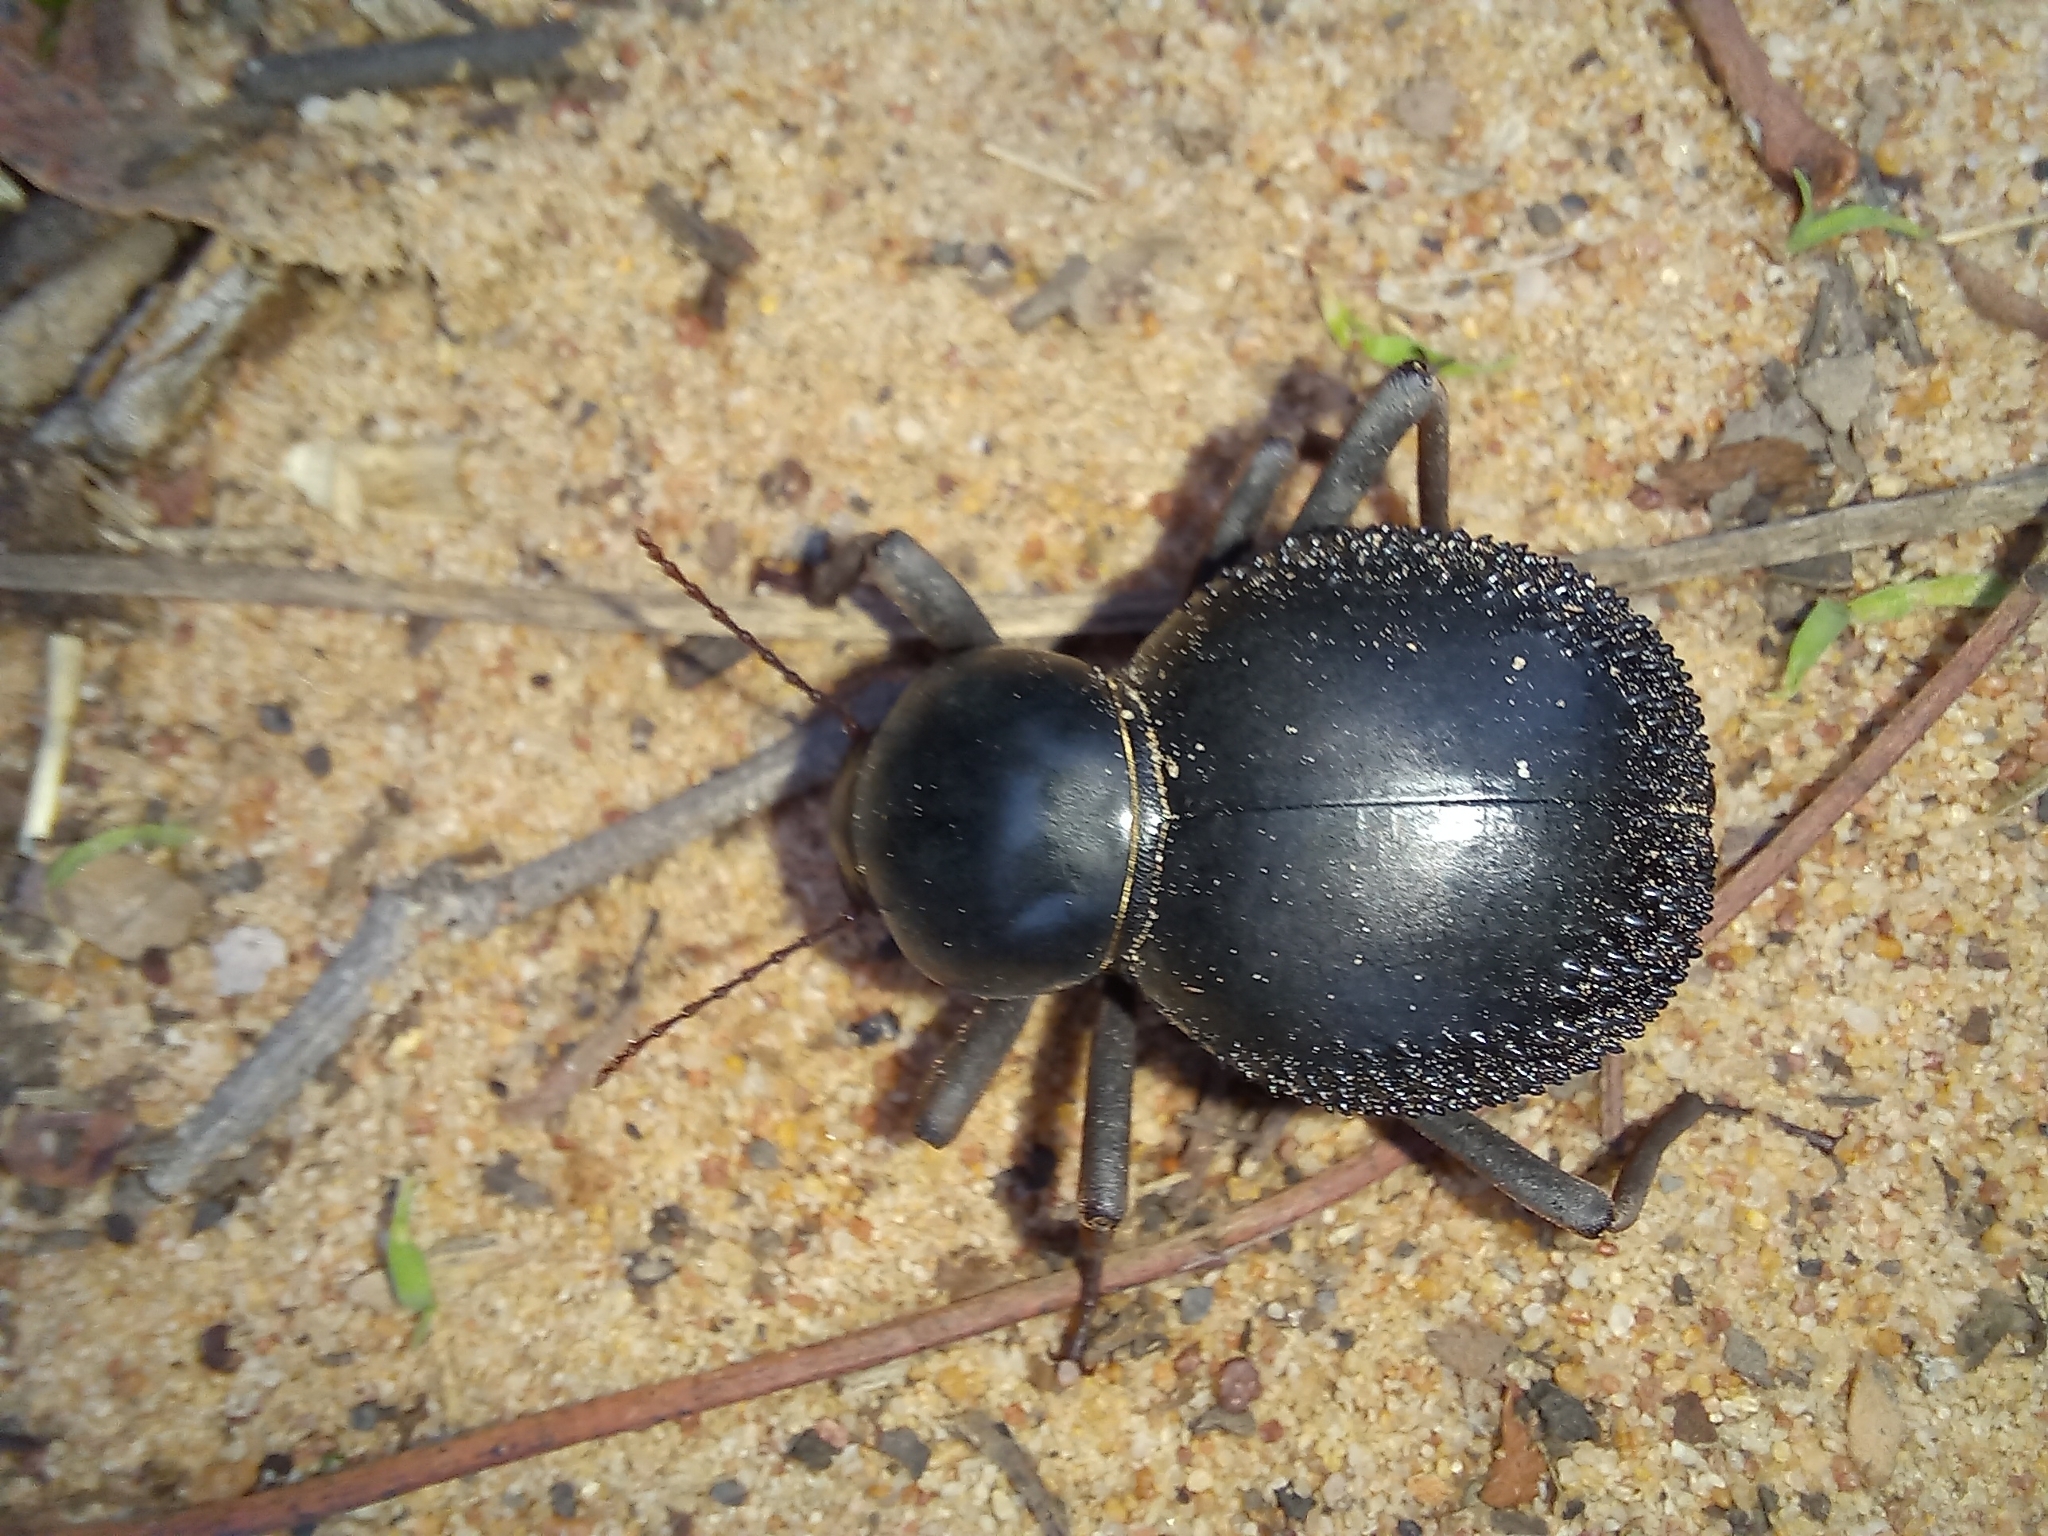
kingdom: Animalia
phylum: Arthropoda
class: Insecta
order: Coleoptera
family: Tenebrionidae
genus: Toktokkus
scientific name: Toktokkus makuya
